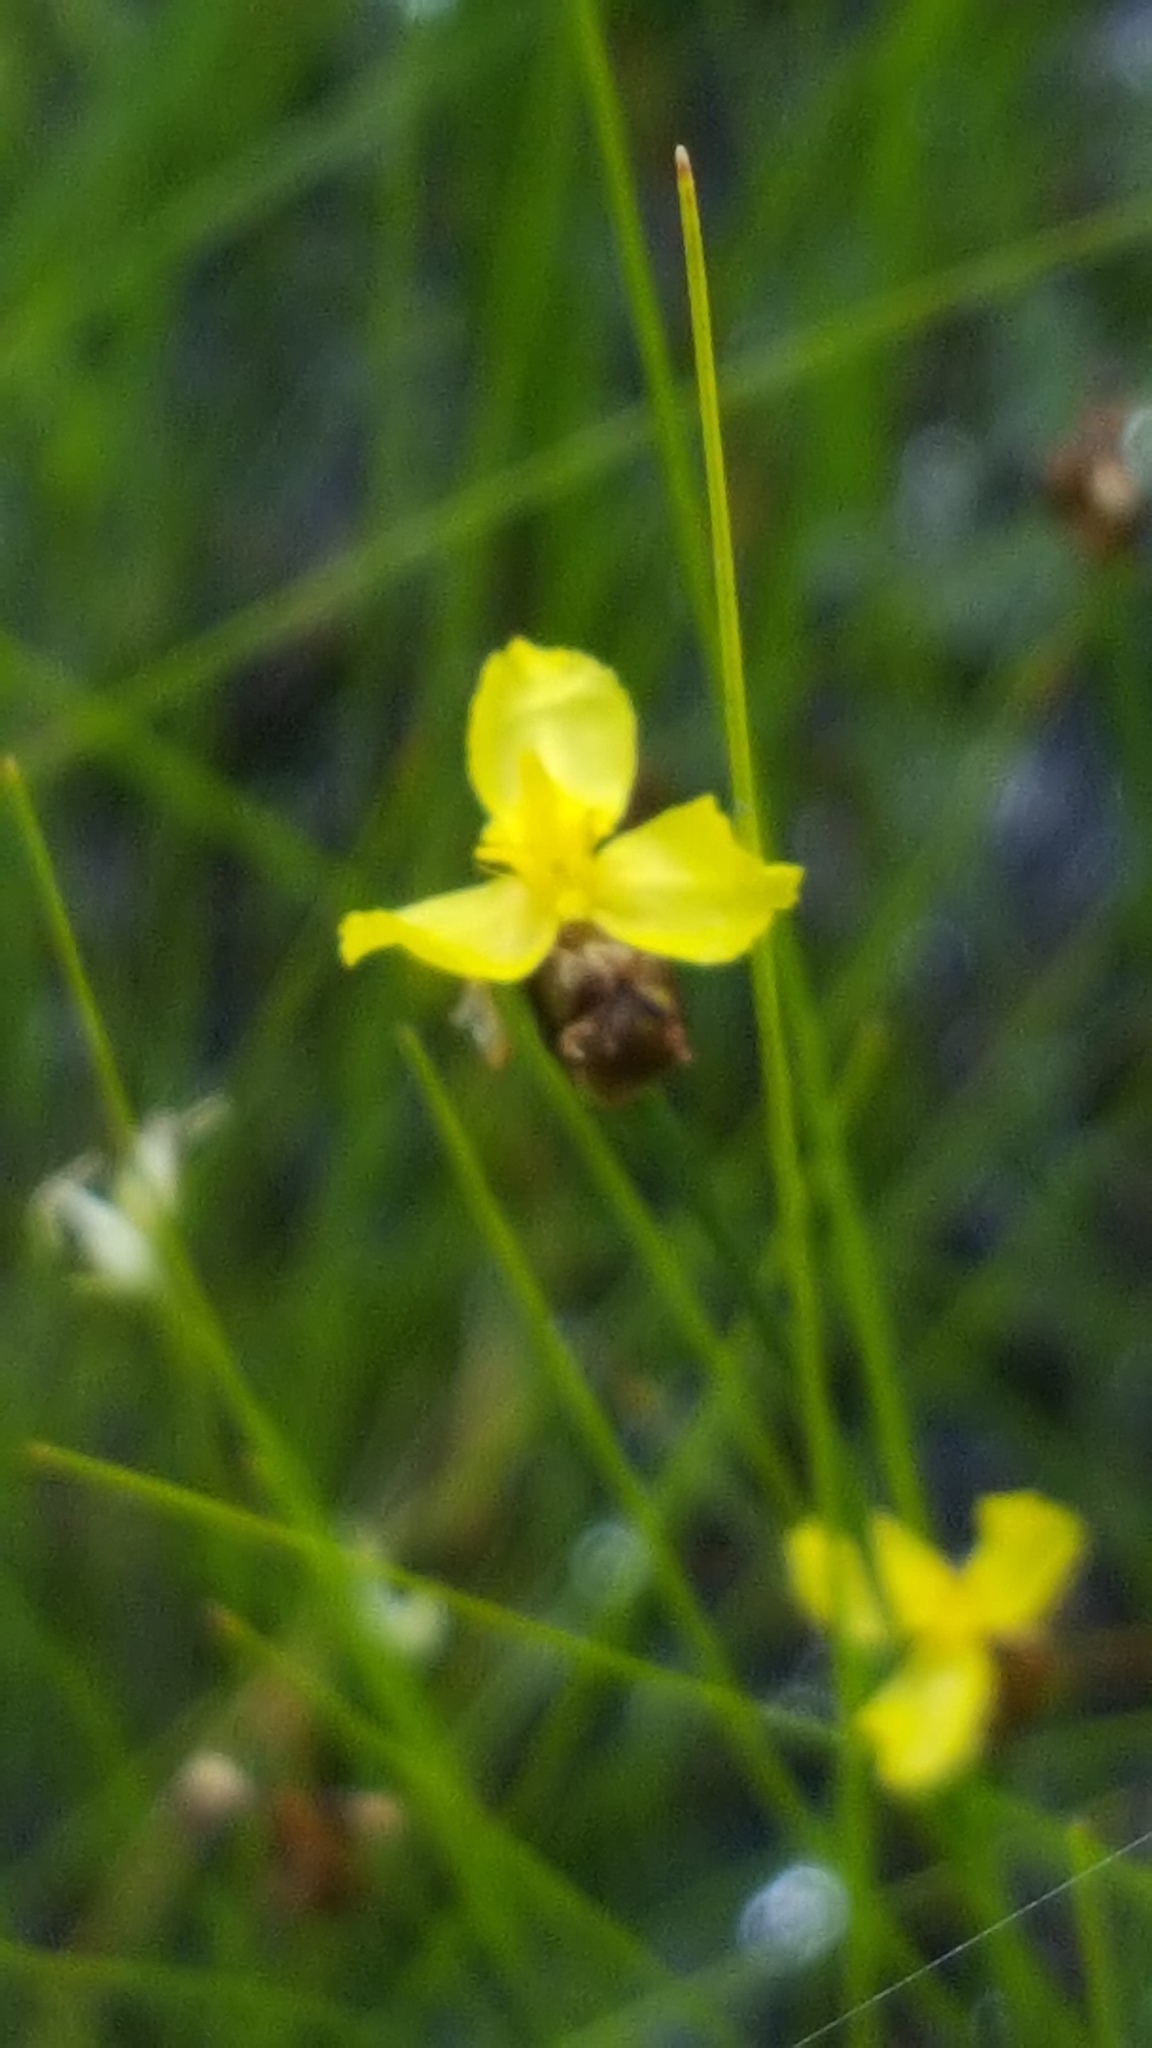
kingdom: Plantae
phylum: Tracheophyta
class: Liliopsida
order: Poales
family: Xyridaceae
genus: Xyris
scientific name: Xyris montana
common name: Northern yellow-eyed-grass
